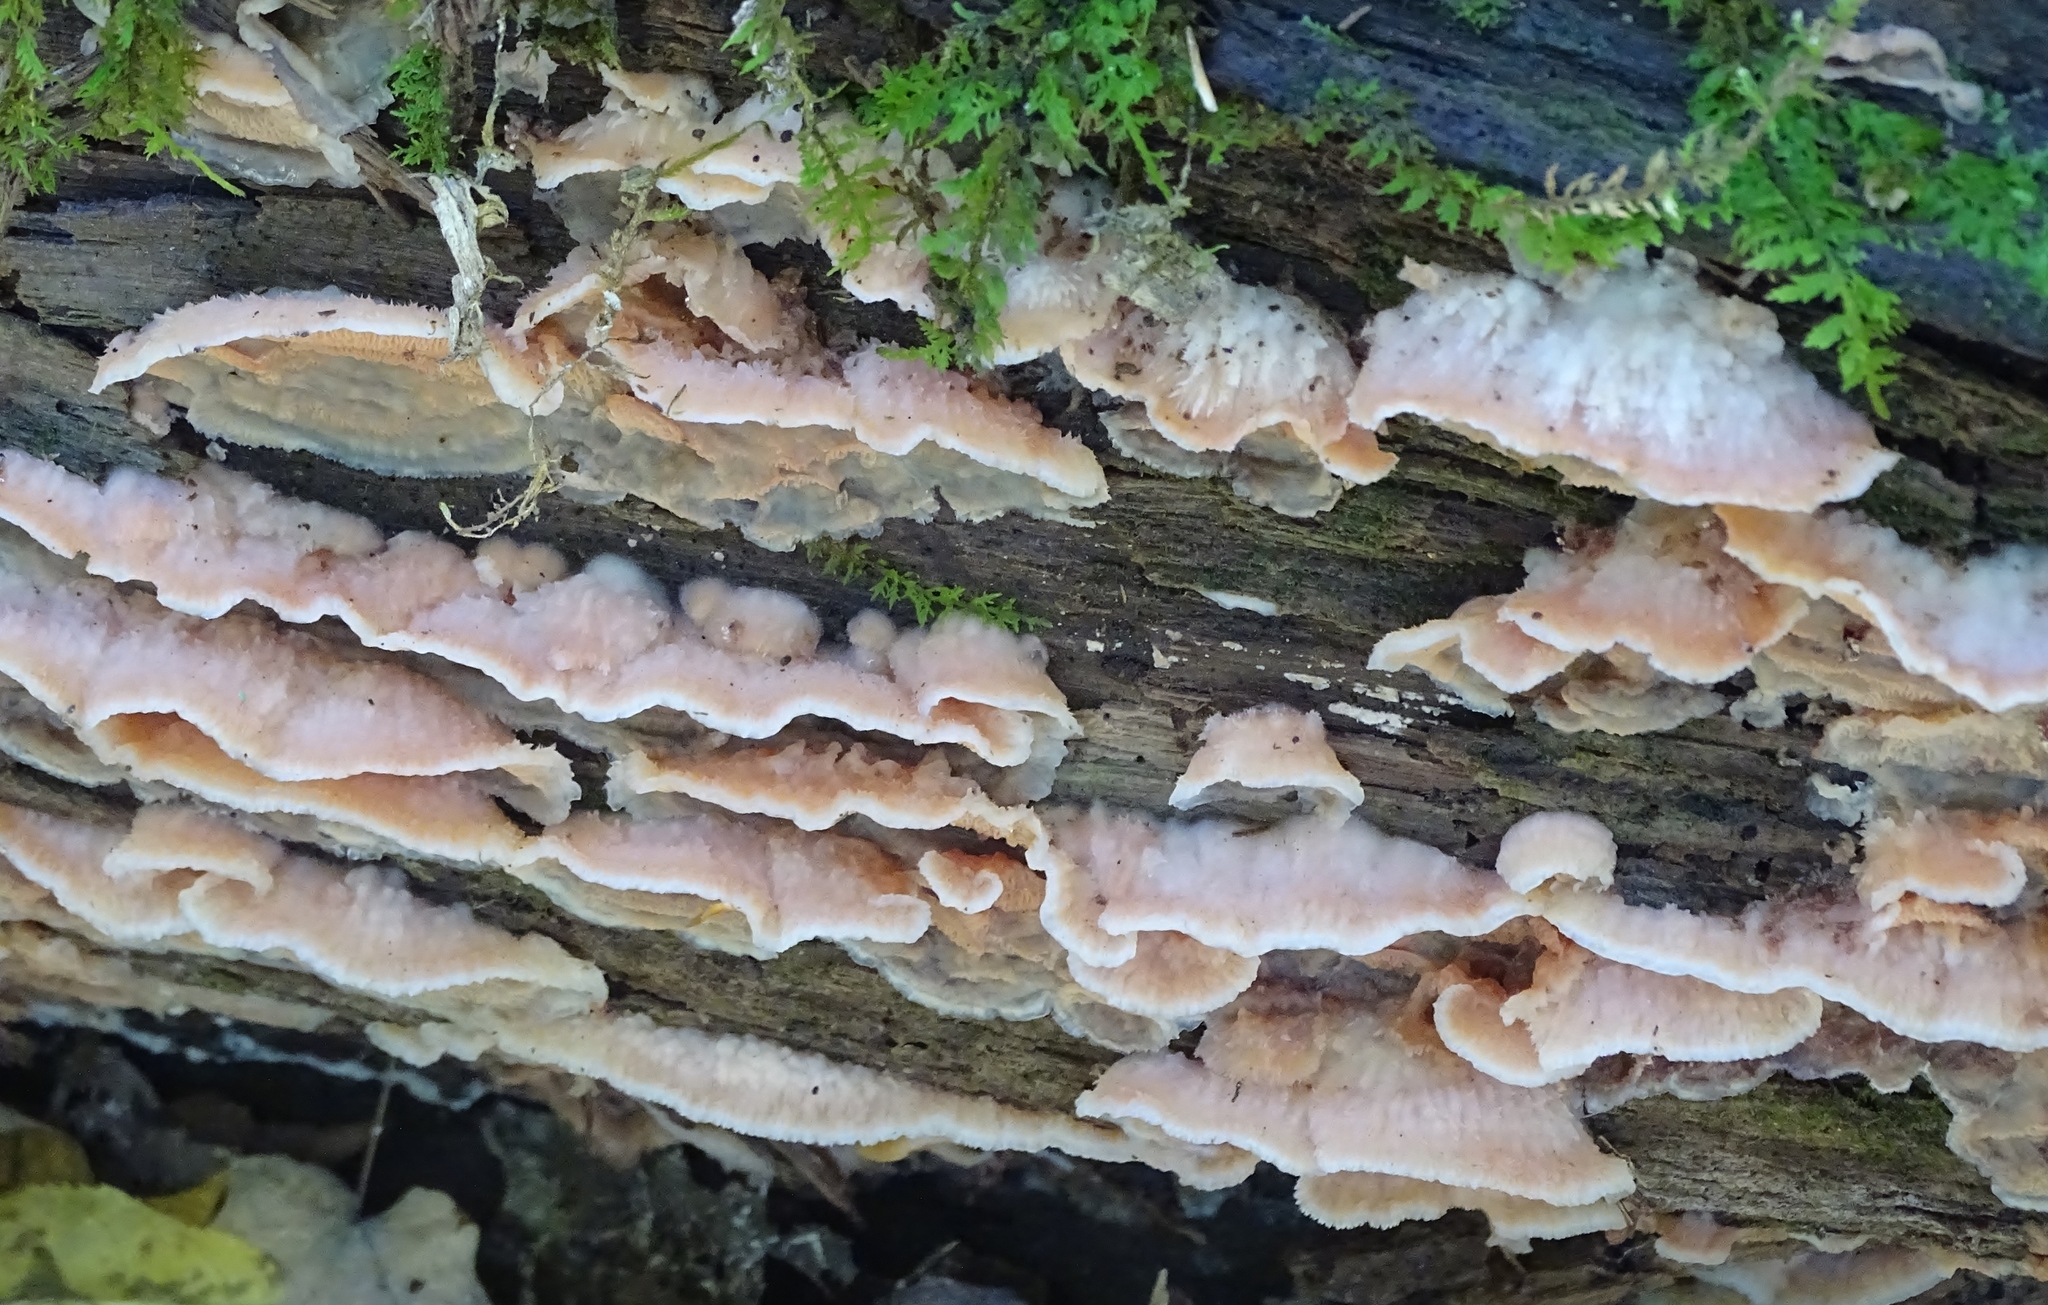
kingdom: Fungi
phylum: Basidiomycota
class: Agaricomycetes
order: Polyporales
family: Meruliaceae
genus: Phlebia
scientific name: Phlebia tremellosa
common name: Jelly rot
